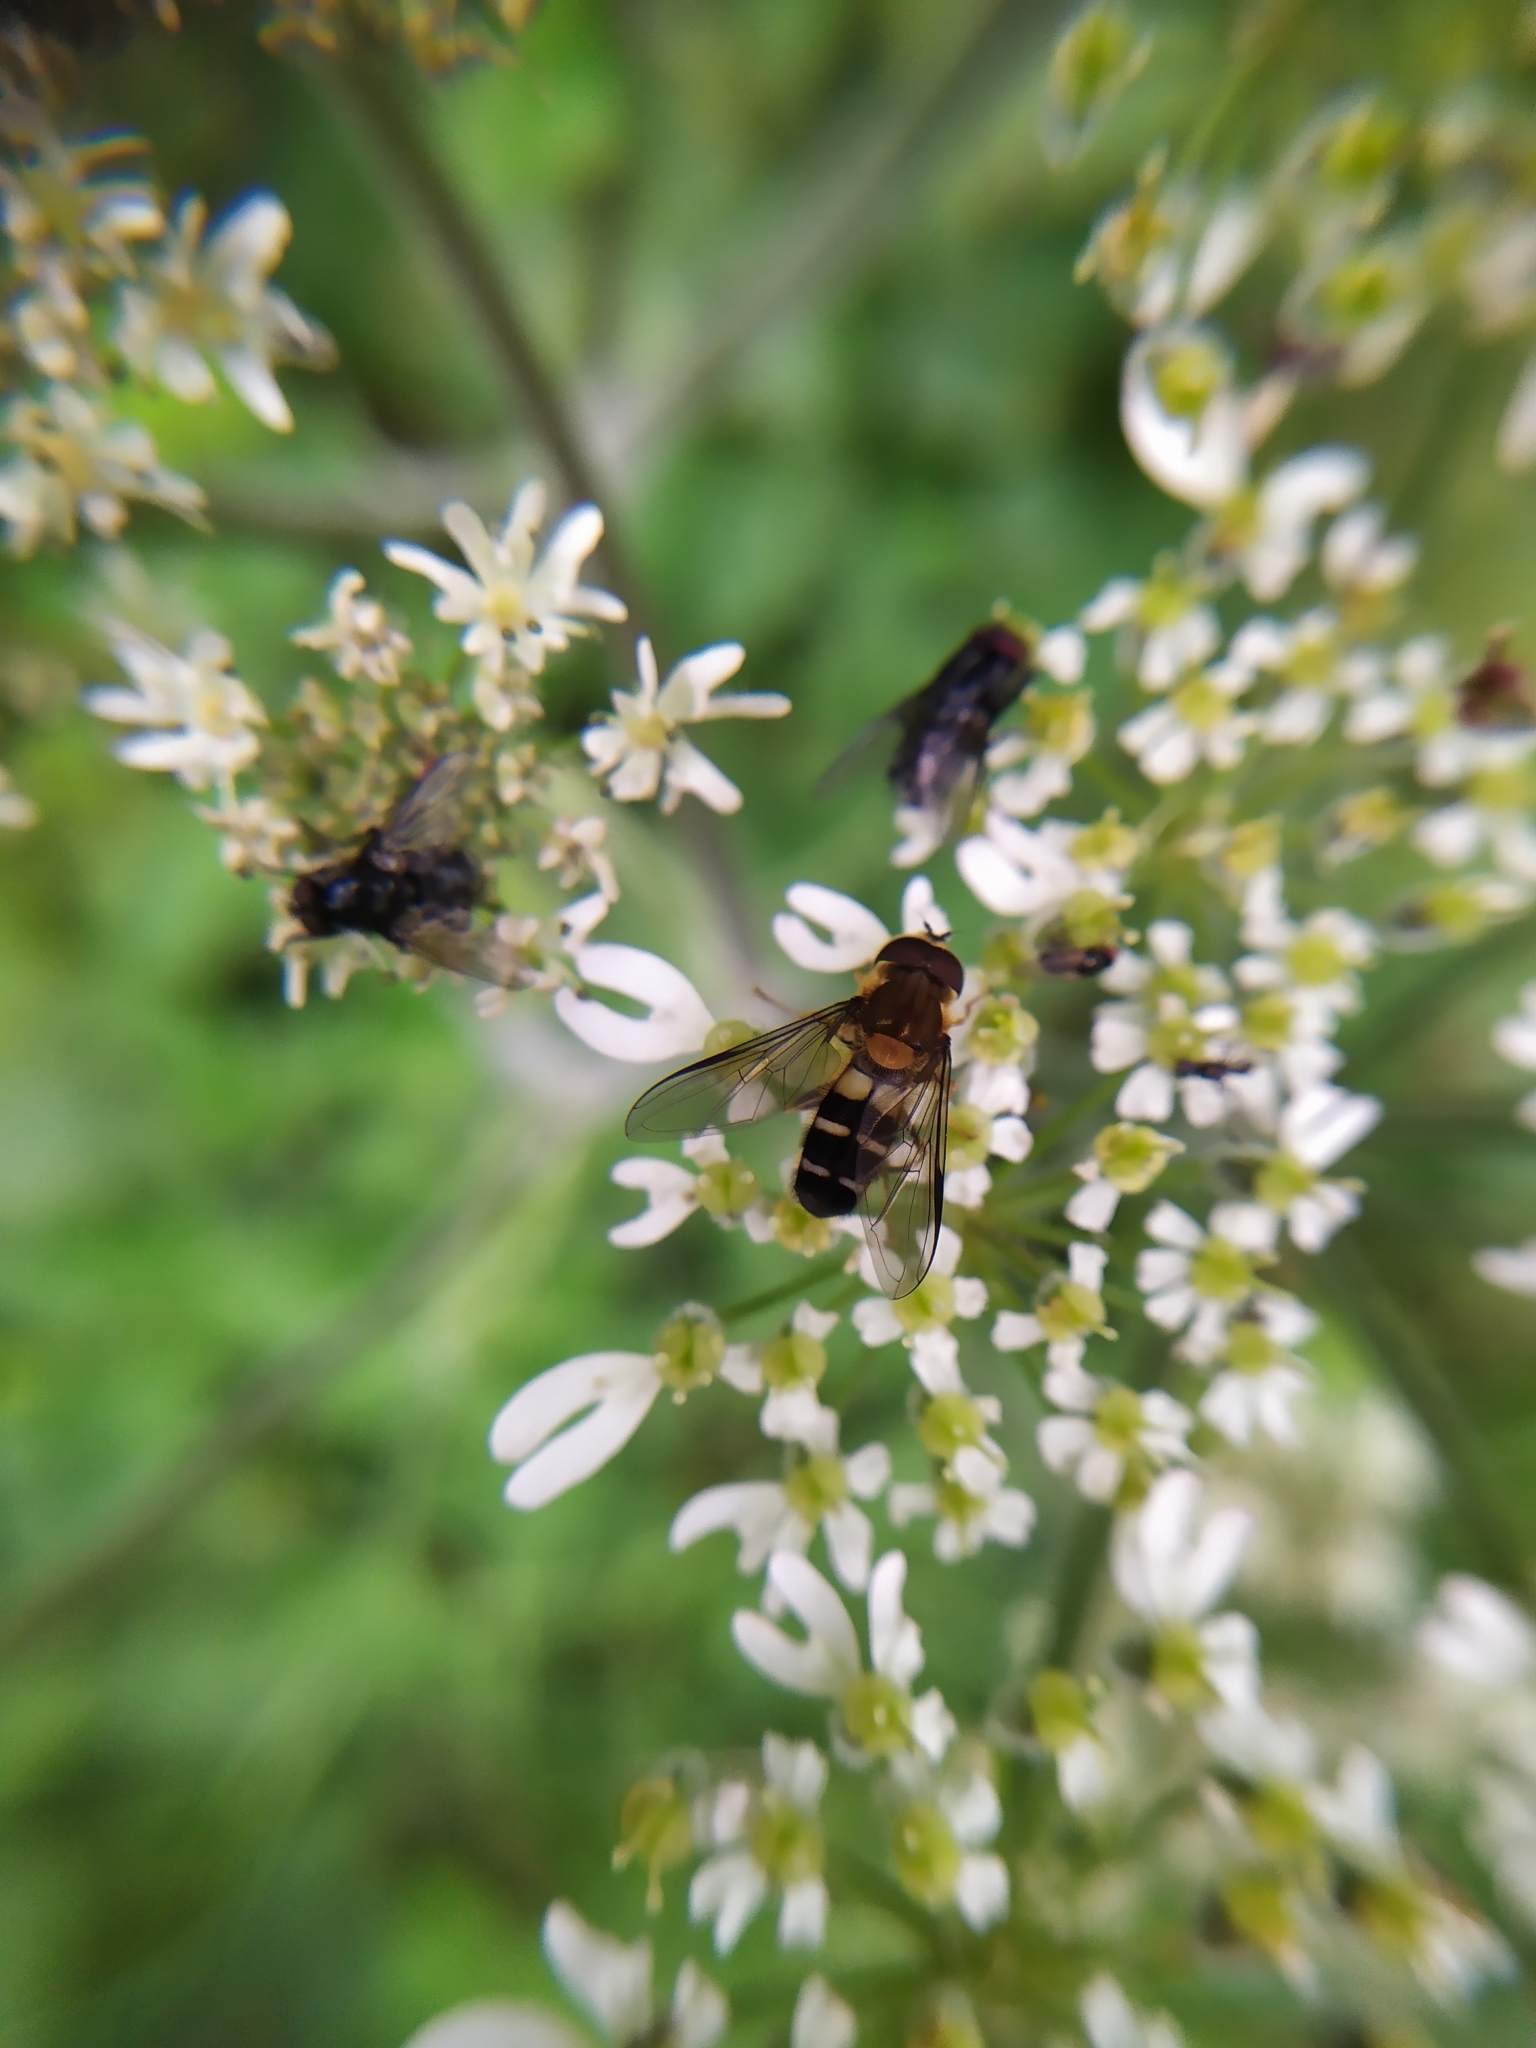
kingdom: Animalia
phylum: Arthropoda
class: Insecta
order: Diptera
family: Syrphidae
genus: Leucozona
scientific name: Leucozona glaucia
